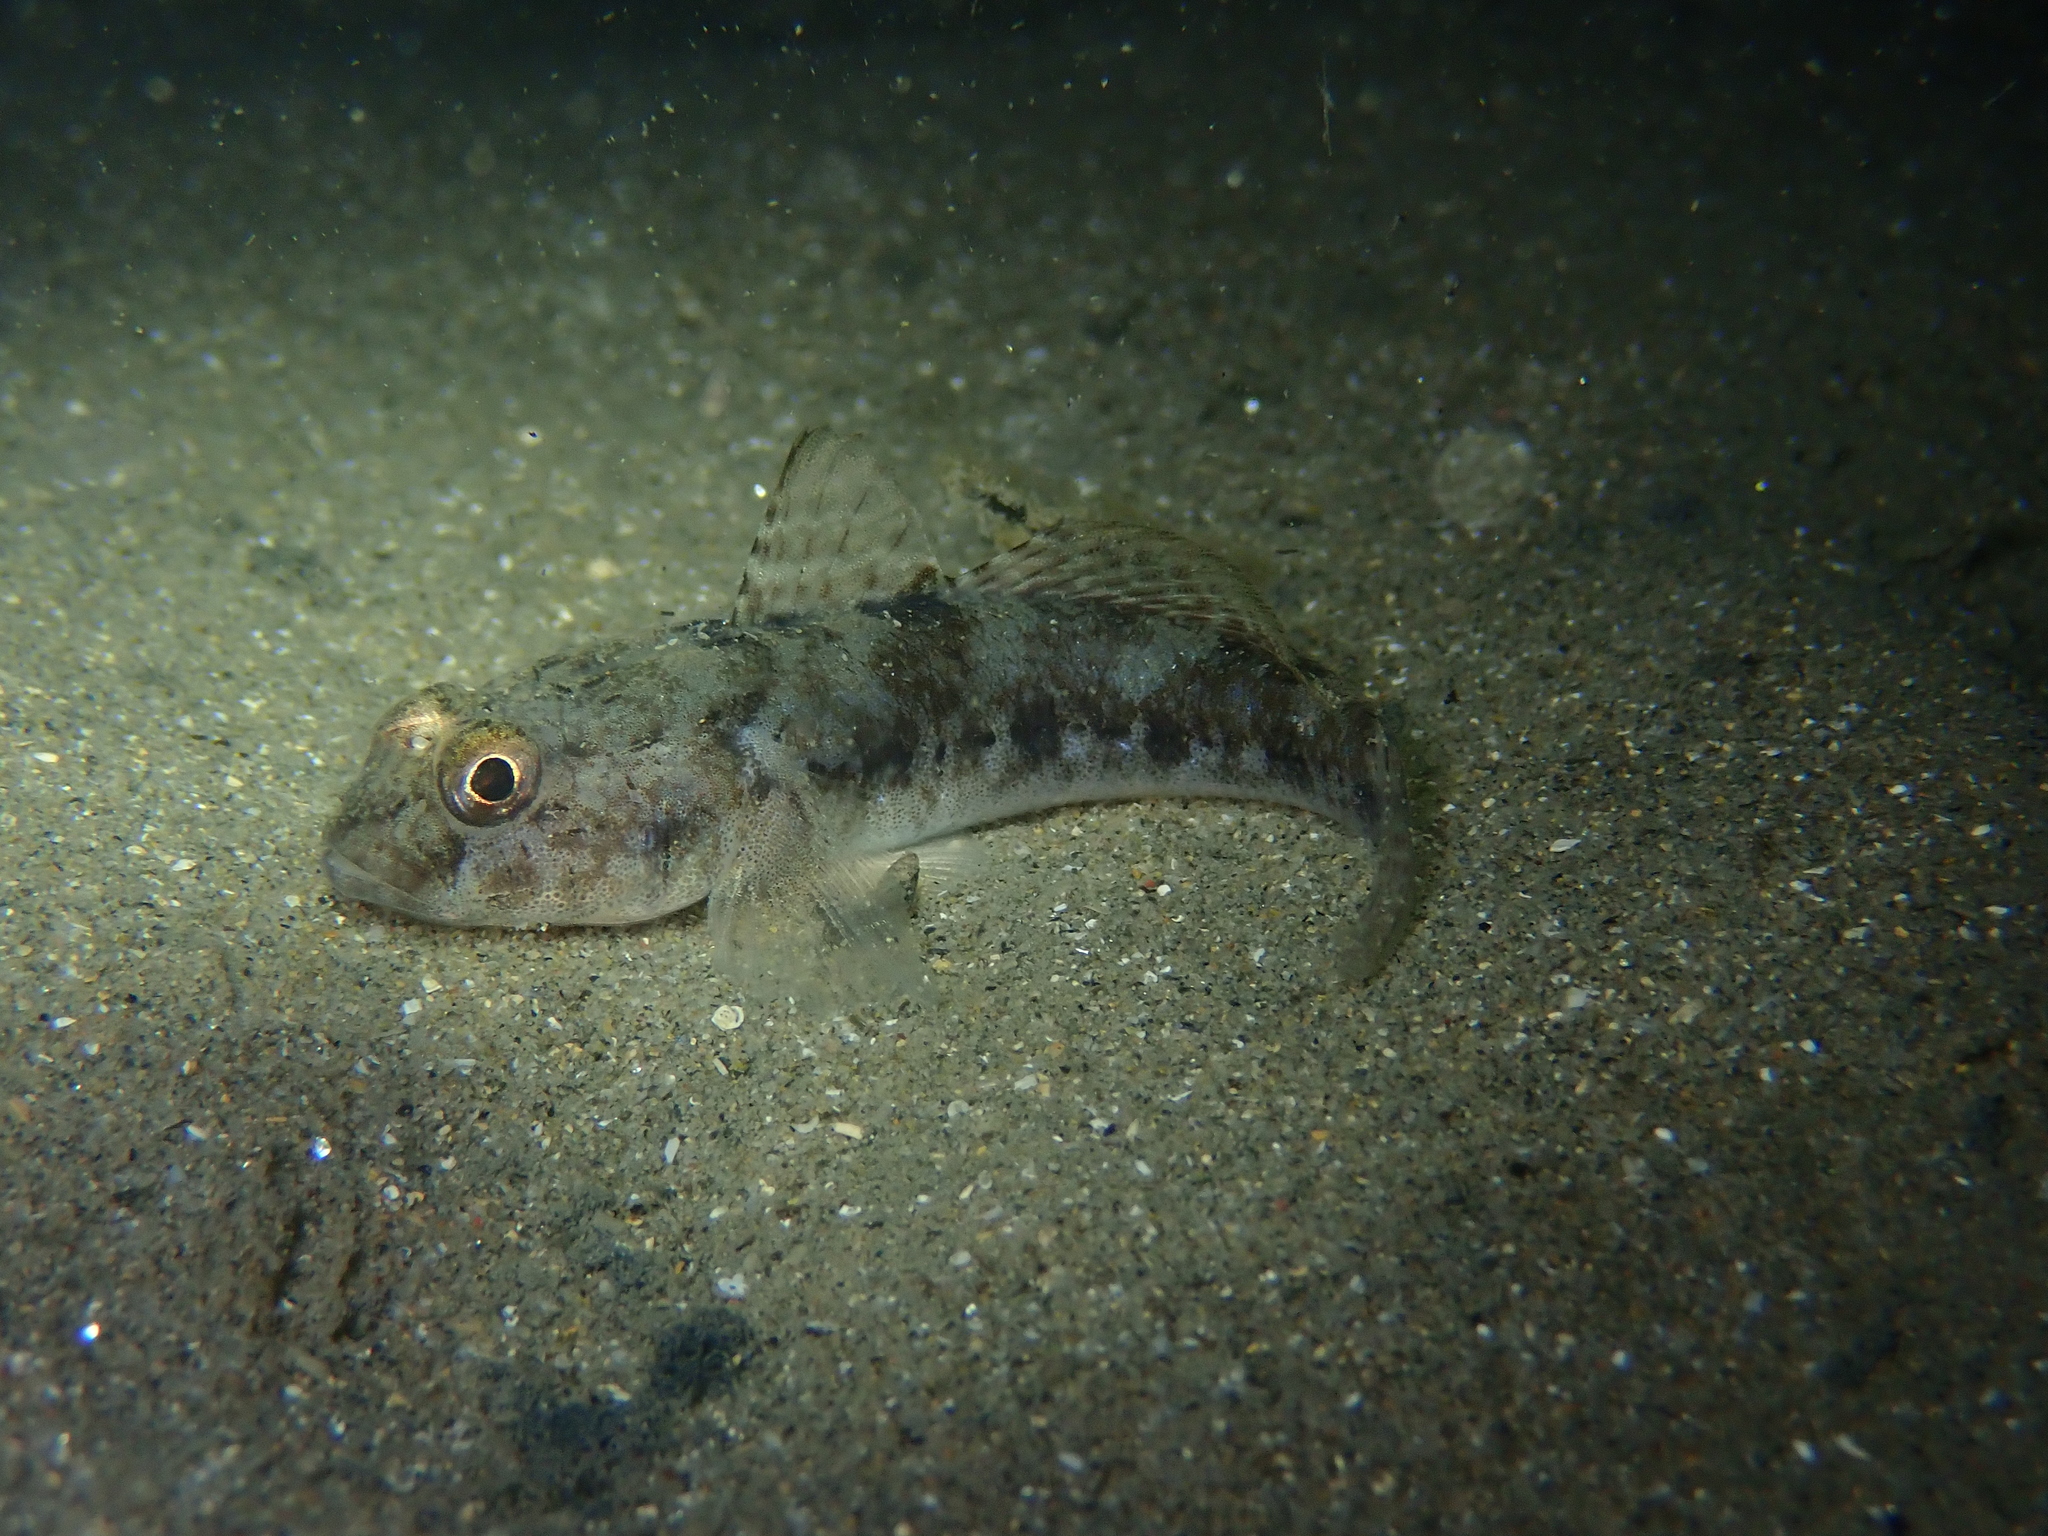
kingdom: Animalia
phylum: Chordata
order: Perciformes
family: Gobiidae
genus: Gobius
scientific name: Gobius niger
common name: Black goby
